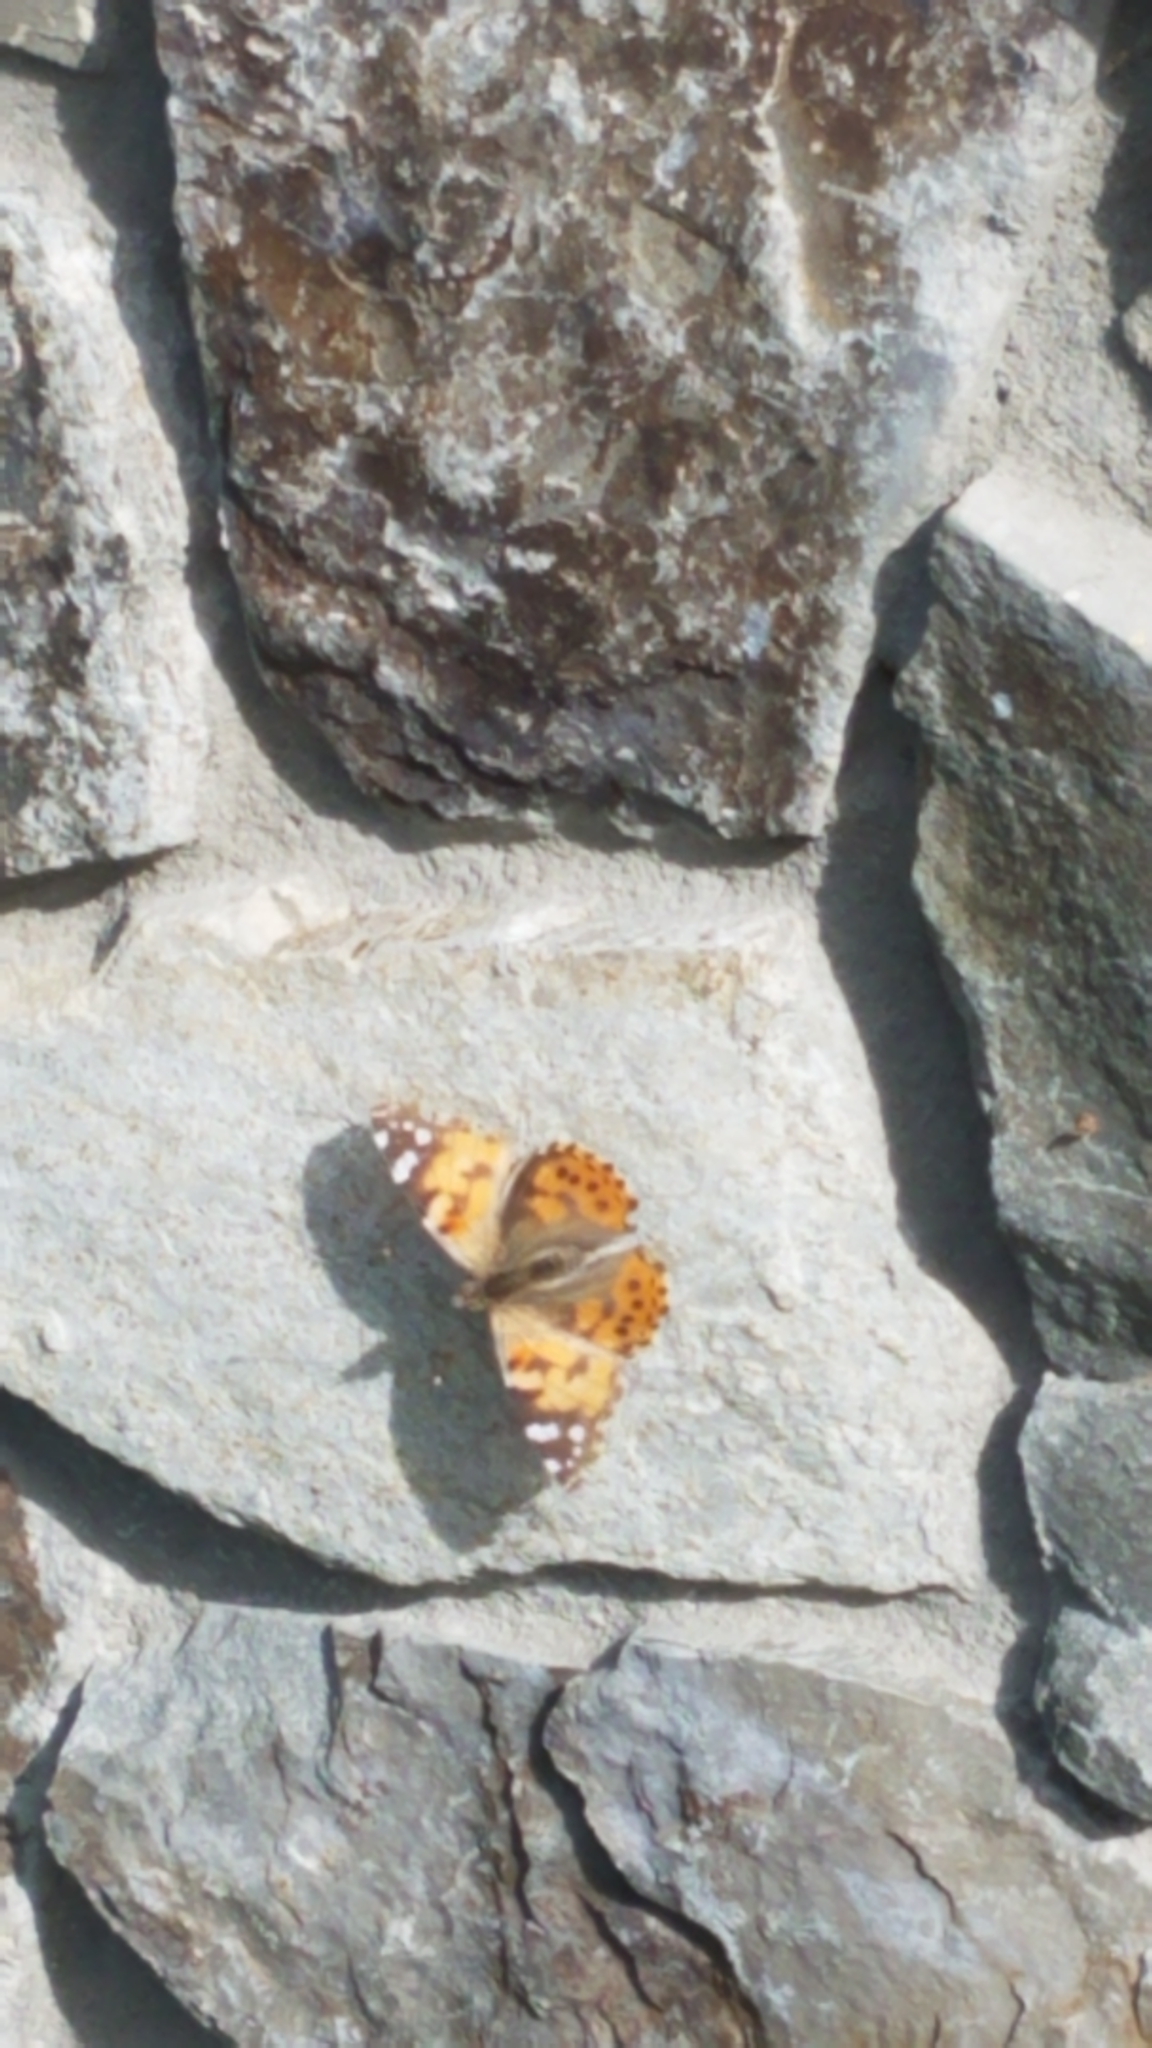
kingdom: Animalia
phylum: Arthropoda
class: Insecta
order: Lepidoptera
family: Nymphalidae
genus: Vanessa
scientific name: Vanessa cardui
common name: Painted lady
